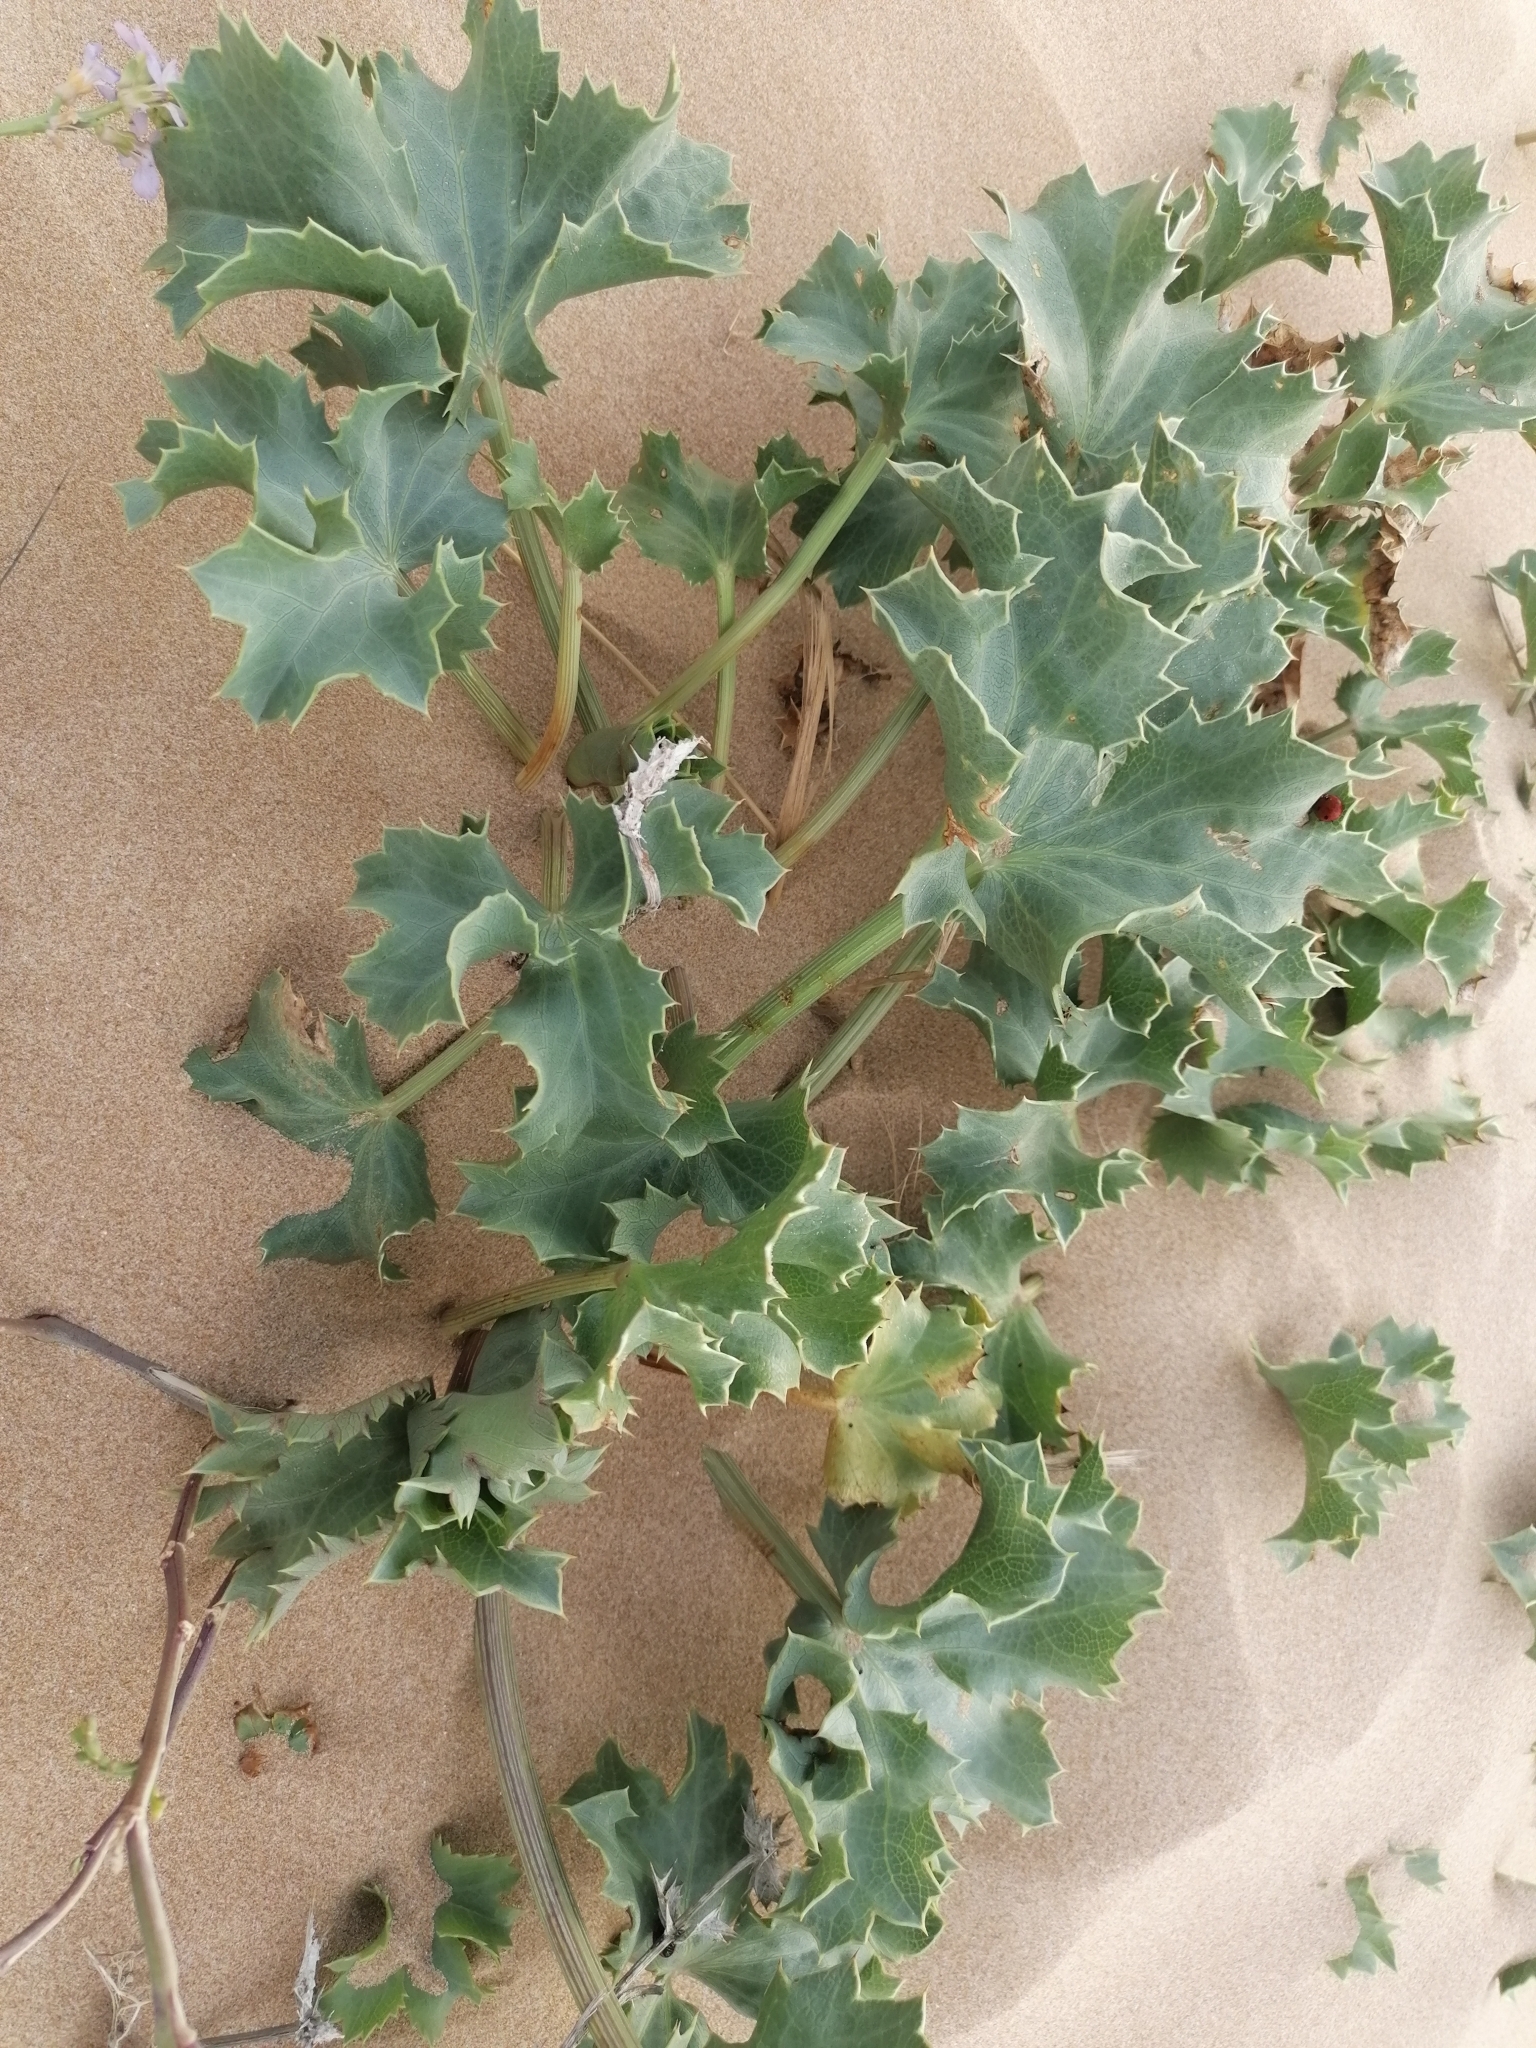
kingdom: Plantae
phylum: Tracheophyta
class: Magnoliopsida
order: Apiales
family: Apiaceae
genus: Eryngium
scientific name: Eryngium maritimum
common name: Sea-holly
